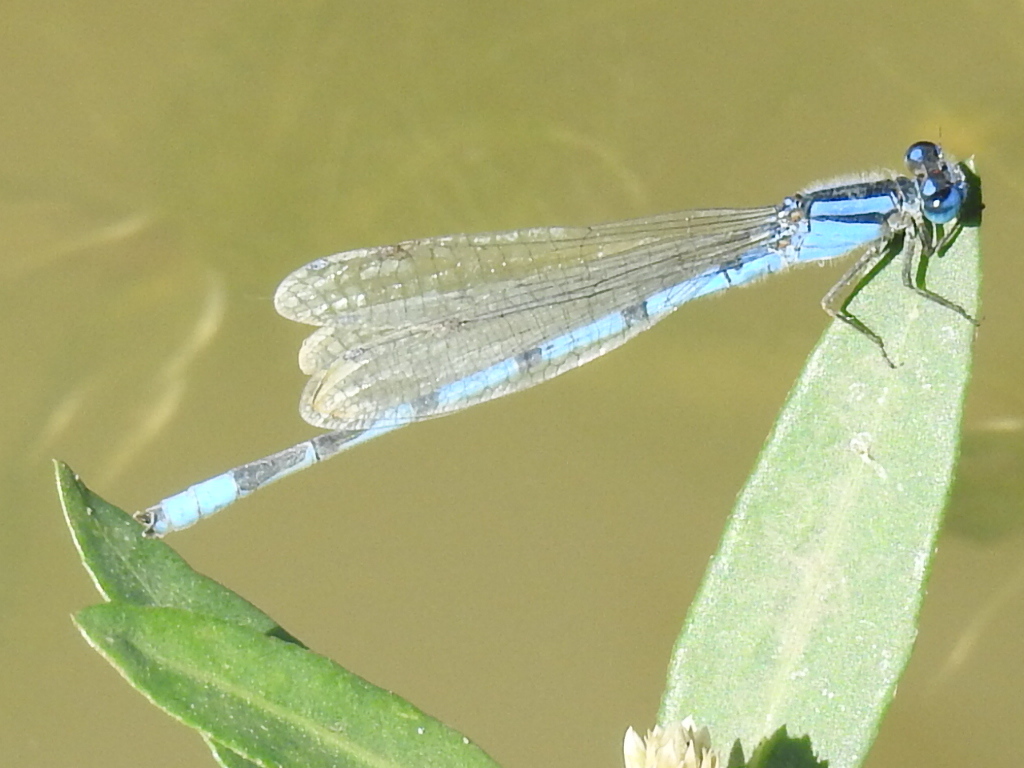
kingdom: Animalia
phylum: Arthropoda
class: Insecta
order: Odonata
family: Coenagrionidae
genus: Enallagma
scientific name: Enallagma civile
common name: Damselfly
